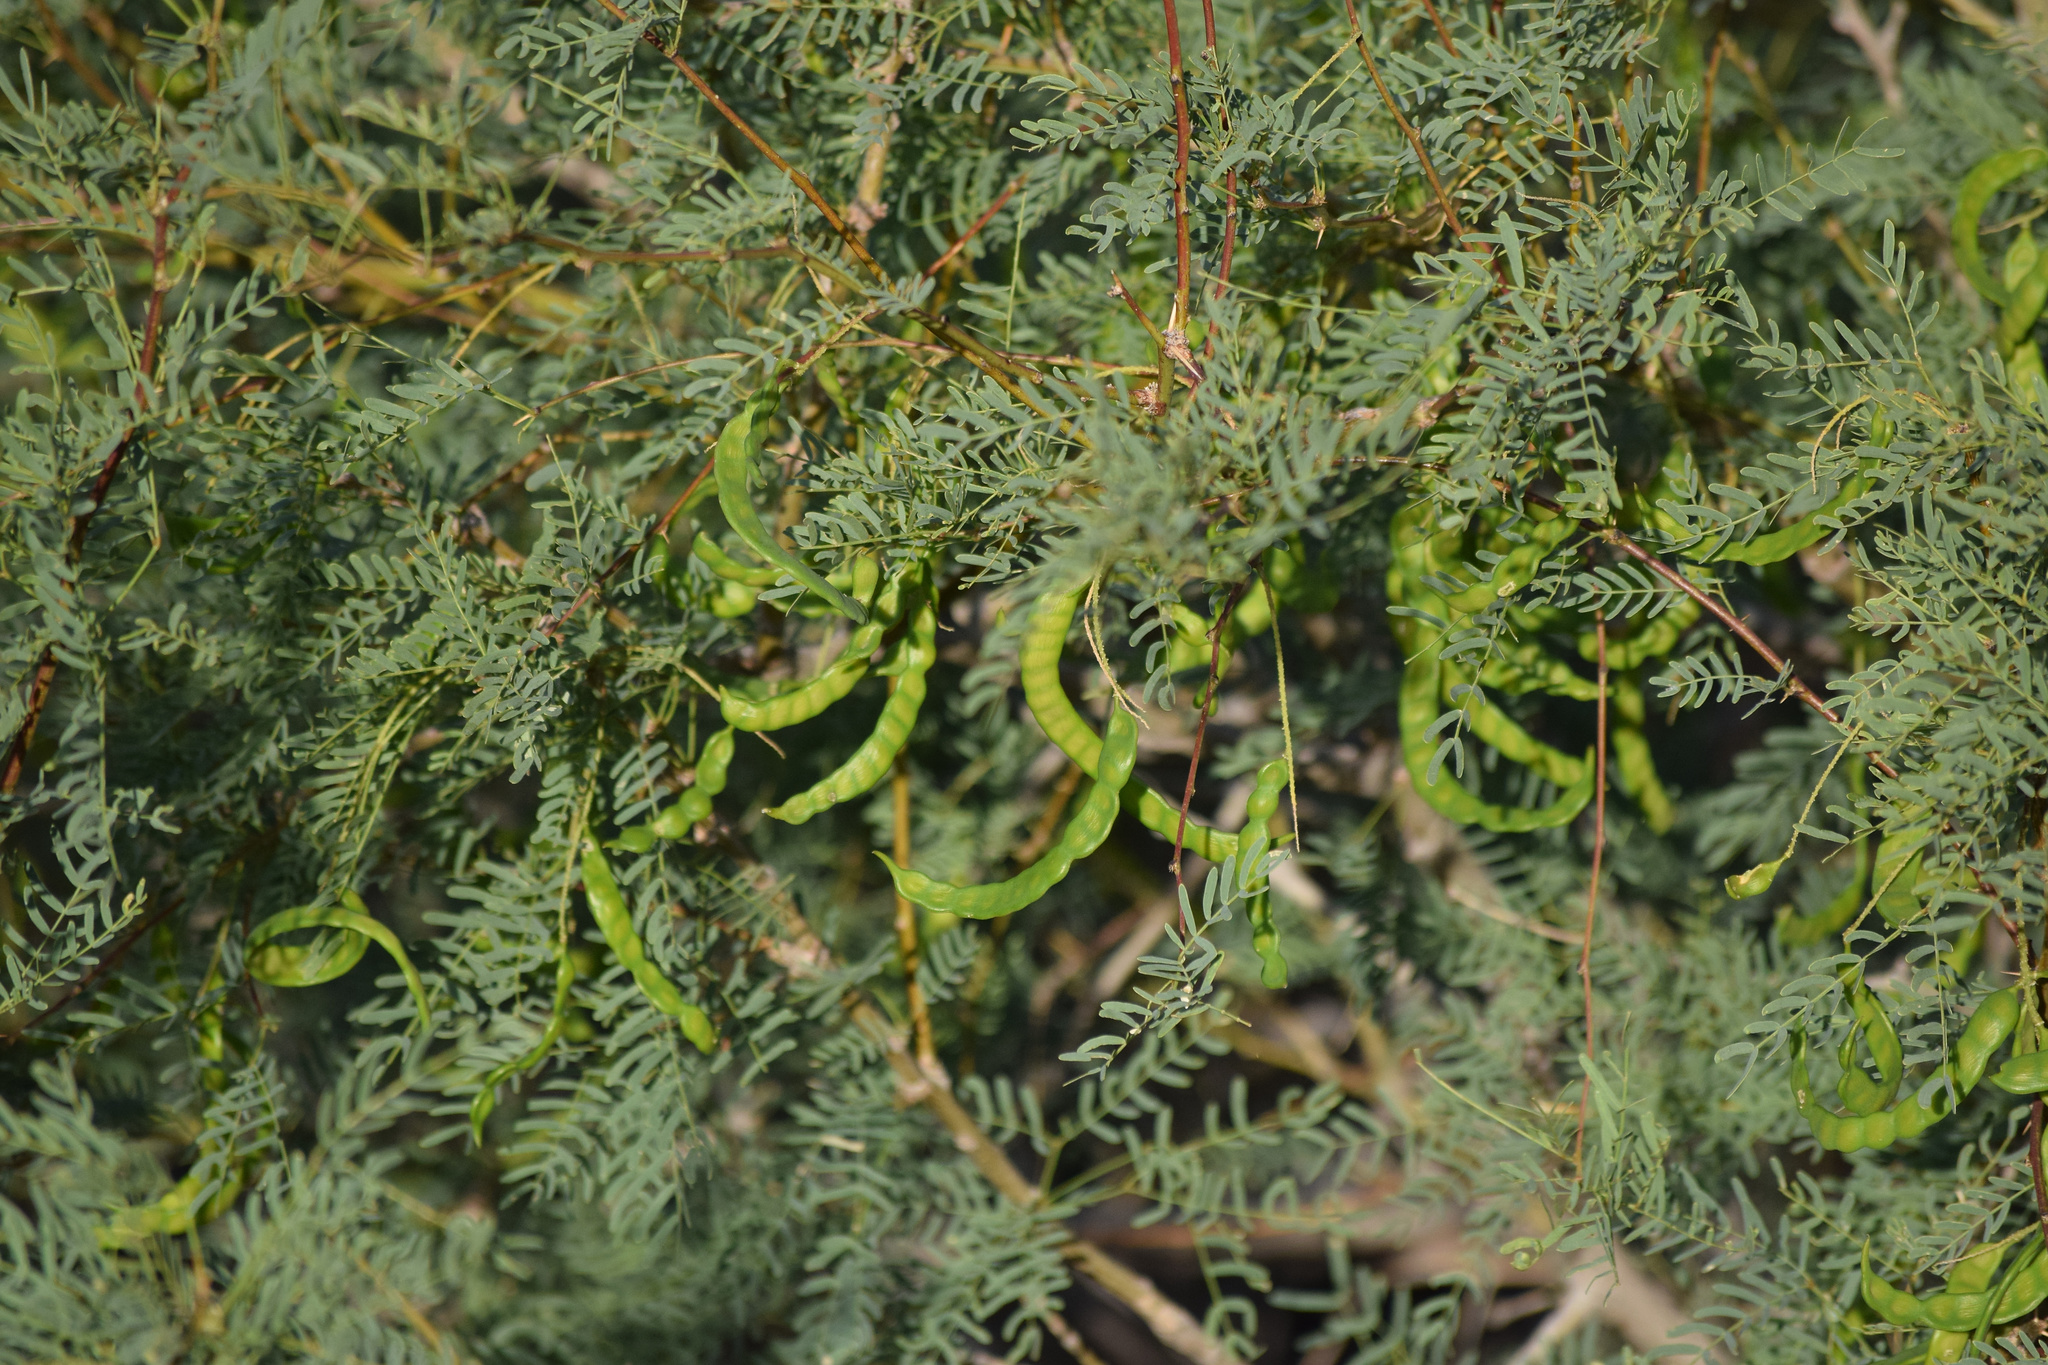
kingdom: Plantae
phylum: Tracheophyta
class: Magnoliopsida
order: Fabales
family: Fabaceae
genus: Prosopis
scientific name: Prosopis pubescens
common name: Screw-bean
